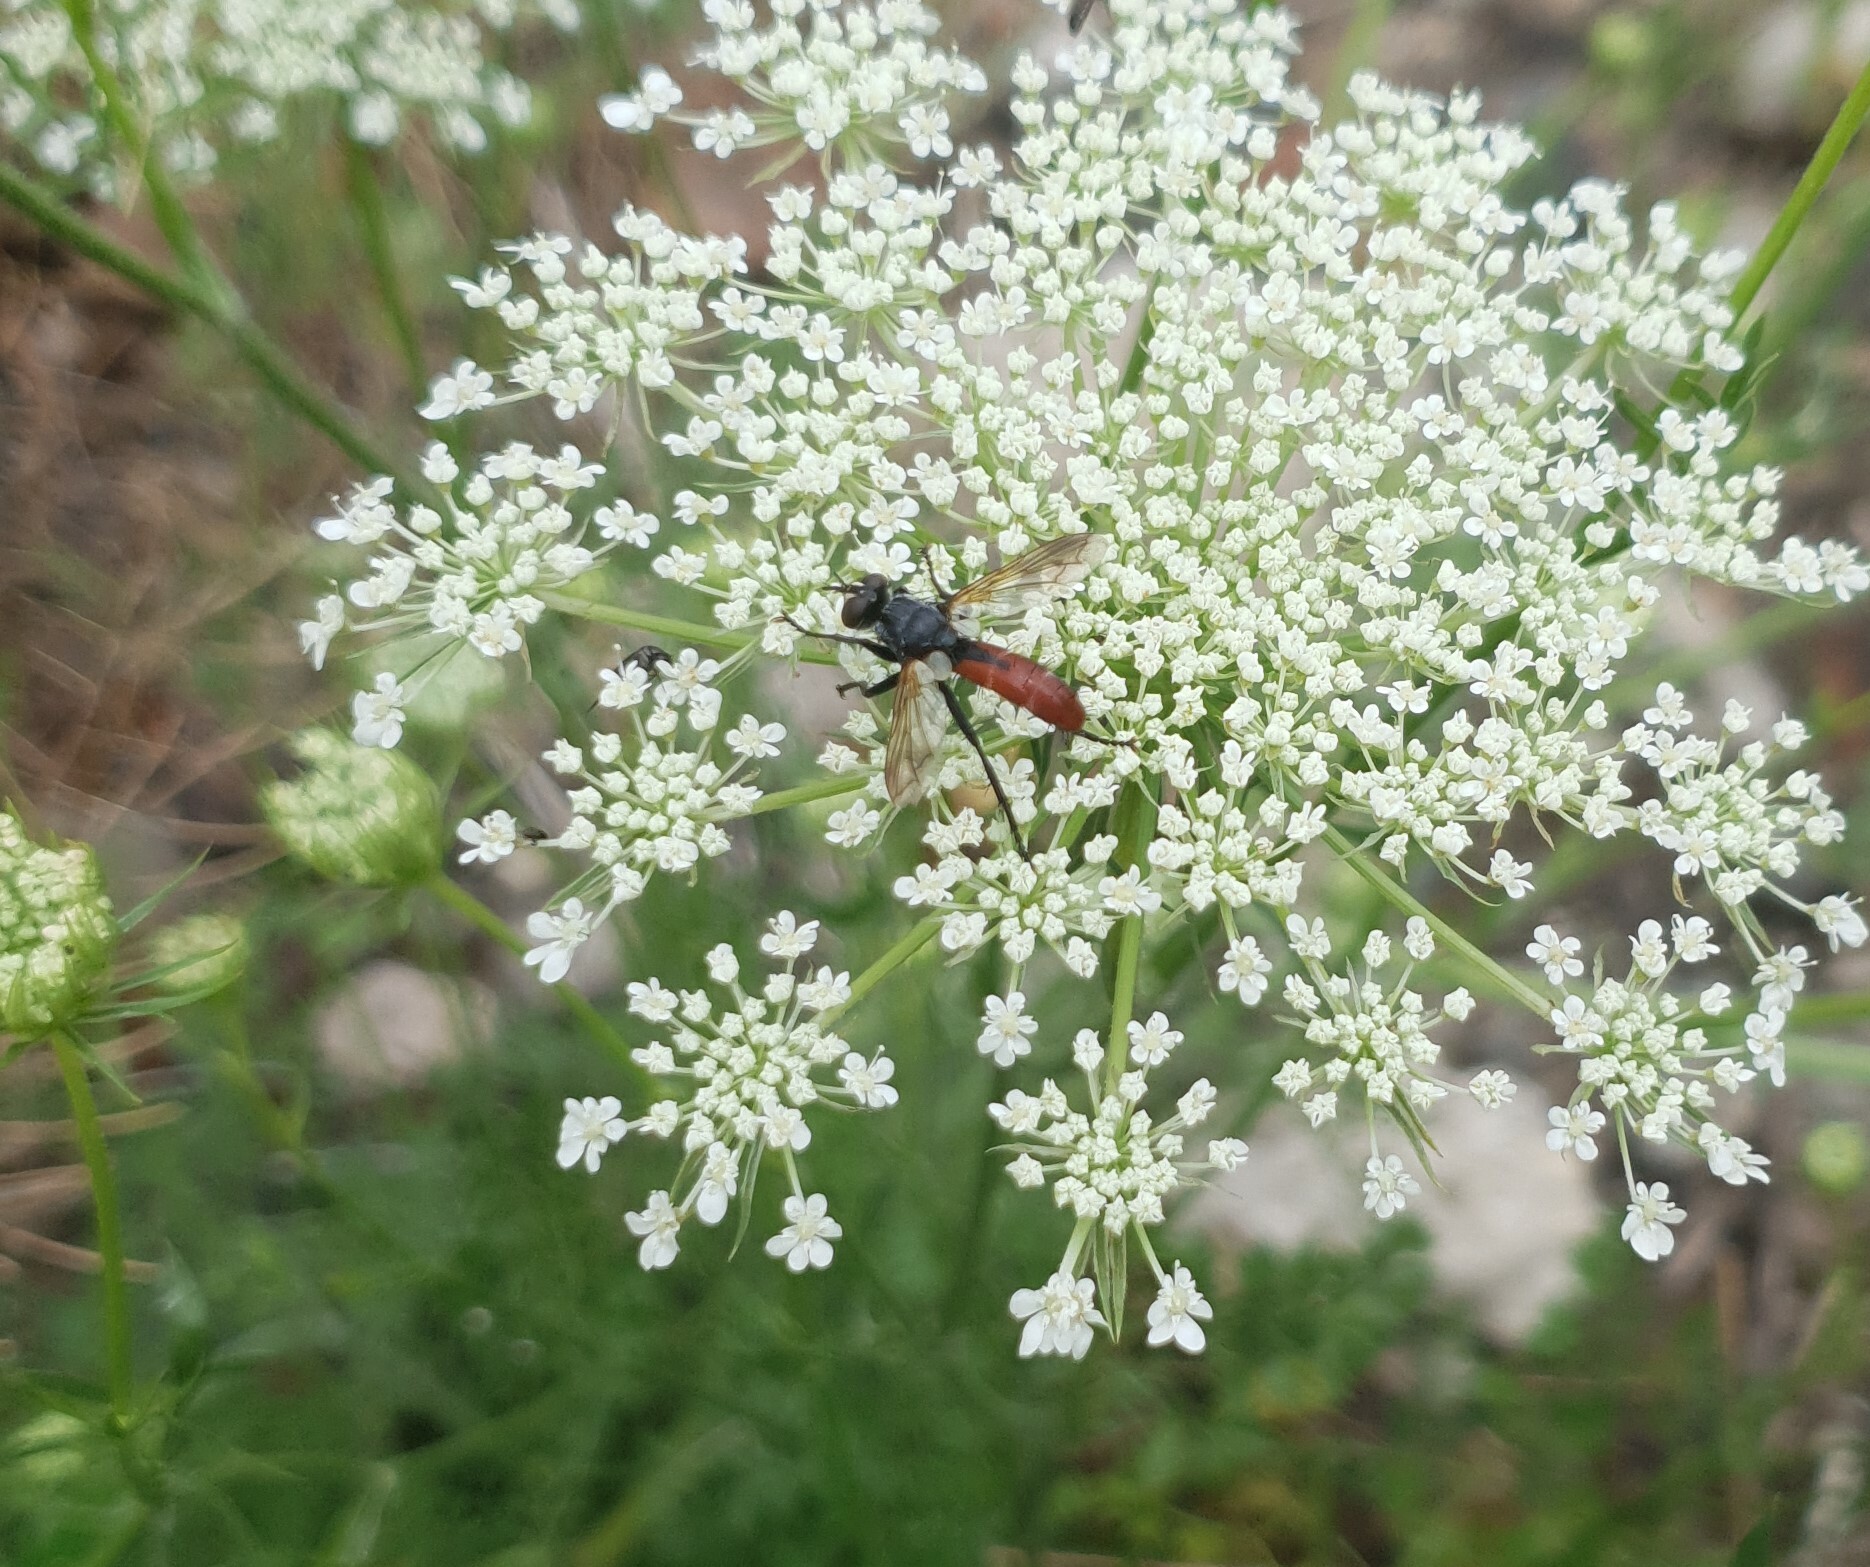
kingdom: Animalia
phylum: Arthropoda
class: Insecta
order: Diptera
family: Tachinidae
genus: Cylindromyia
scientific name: Cylindromyia bicolor
